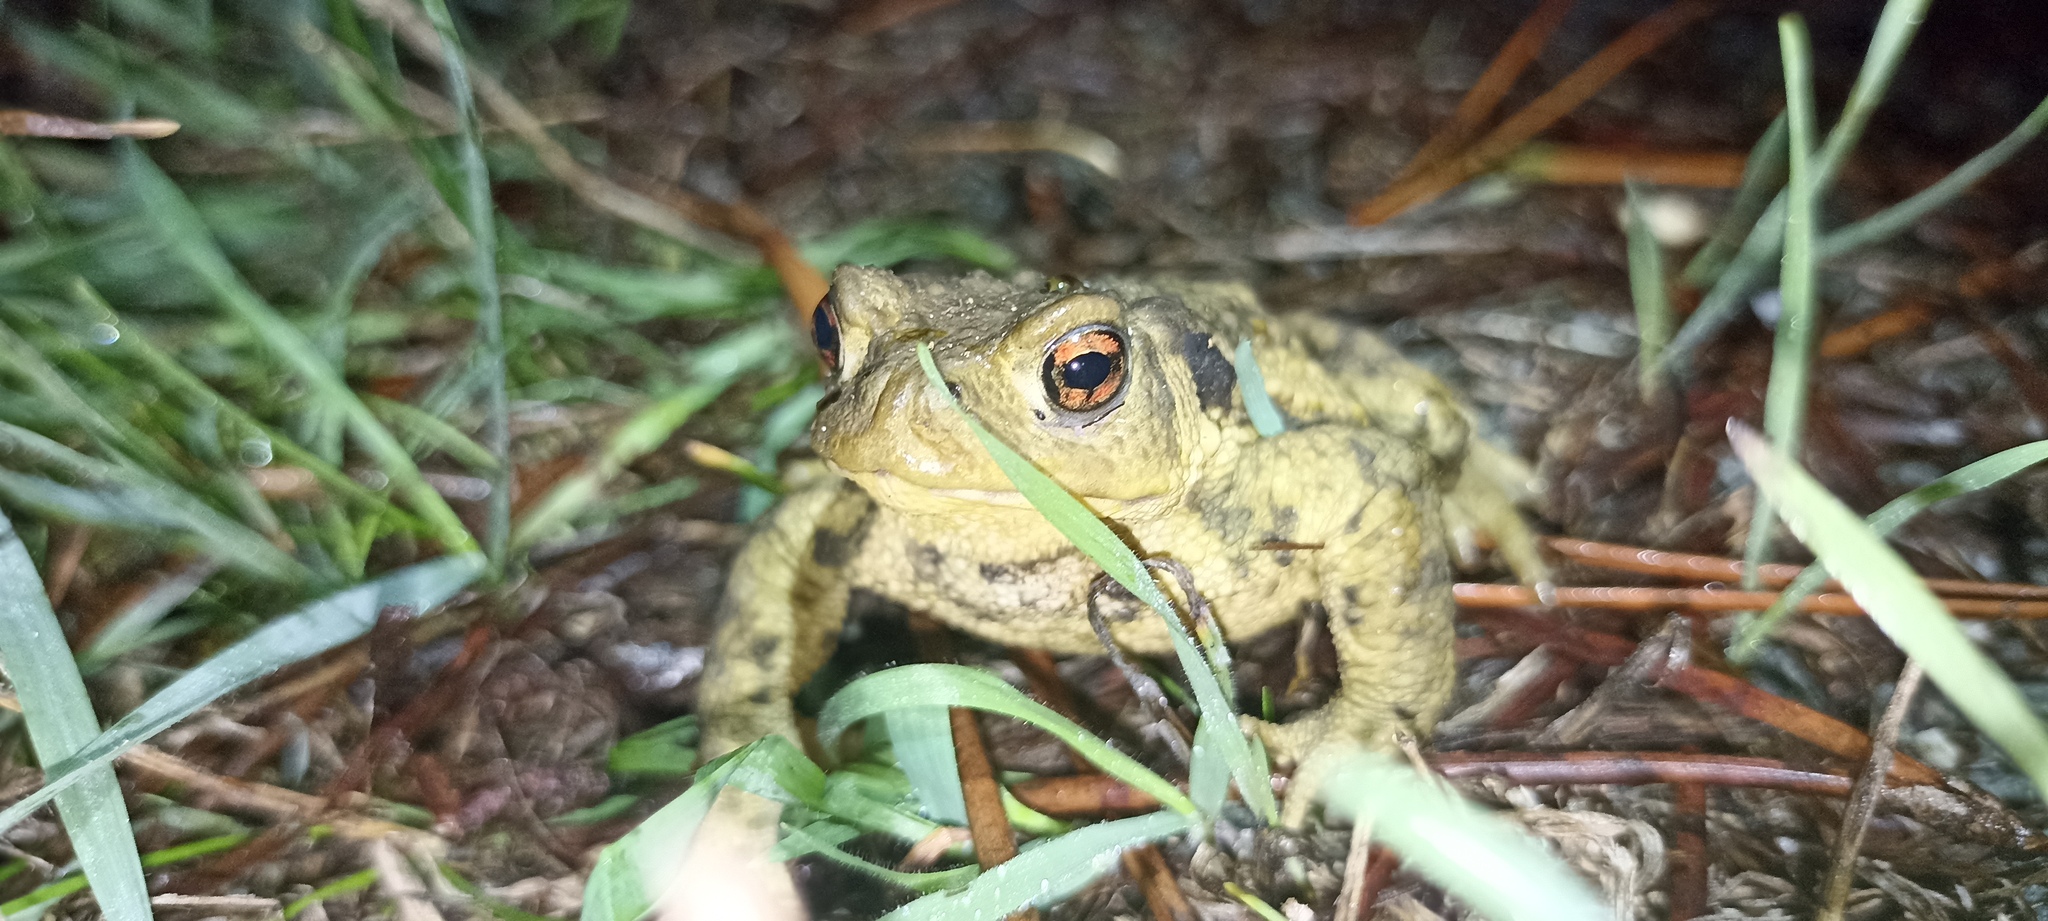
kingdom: Animalia
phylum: Chordata
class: Amphibia
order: Anura
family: Bufonidae
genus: Bufo
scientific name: Bufo spinosus
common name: Western common toad
